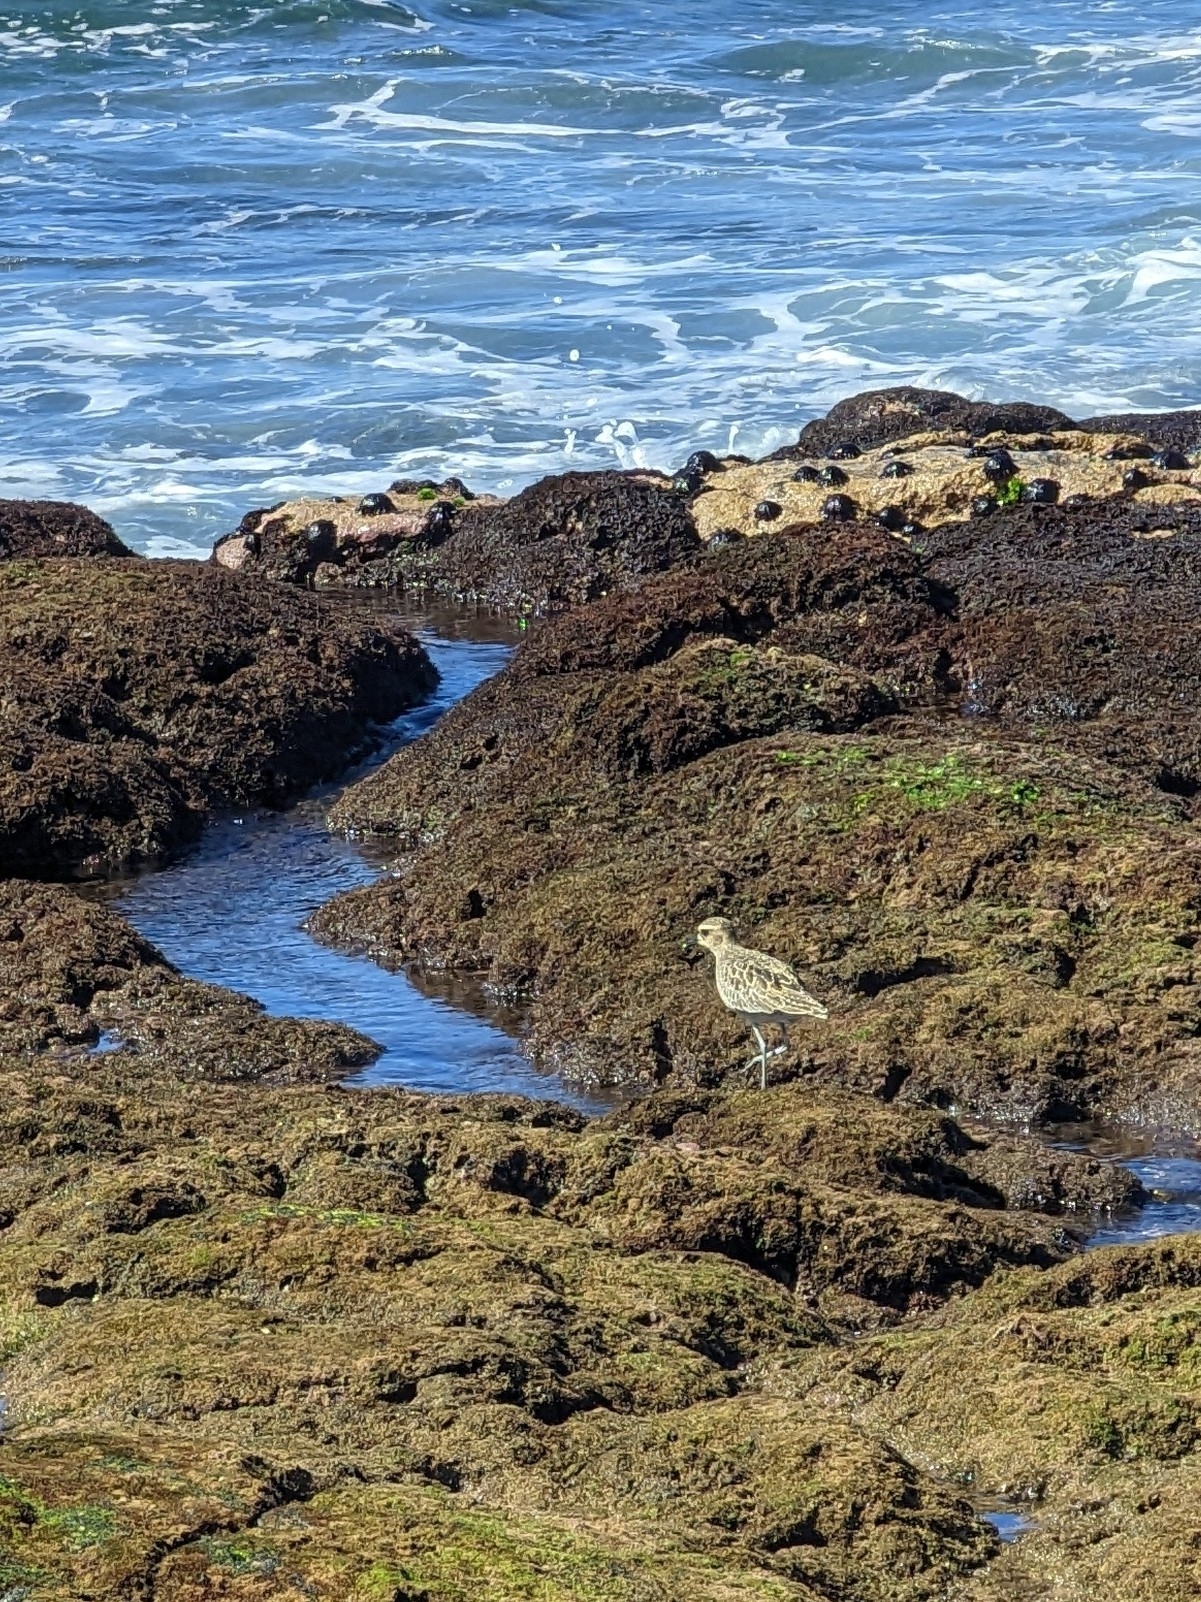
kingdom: Animalia
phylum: Chordata
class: Aves
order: Charadriiformes
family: Charadriidae
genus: Pluvialis
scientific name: Pluvialis fulva
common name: Pacific golden plover
